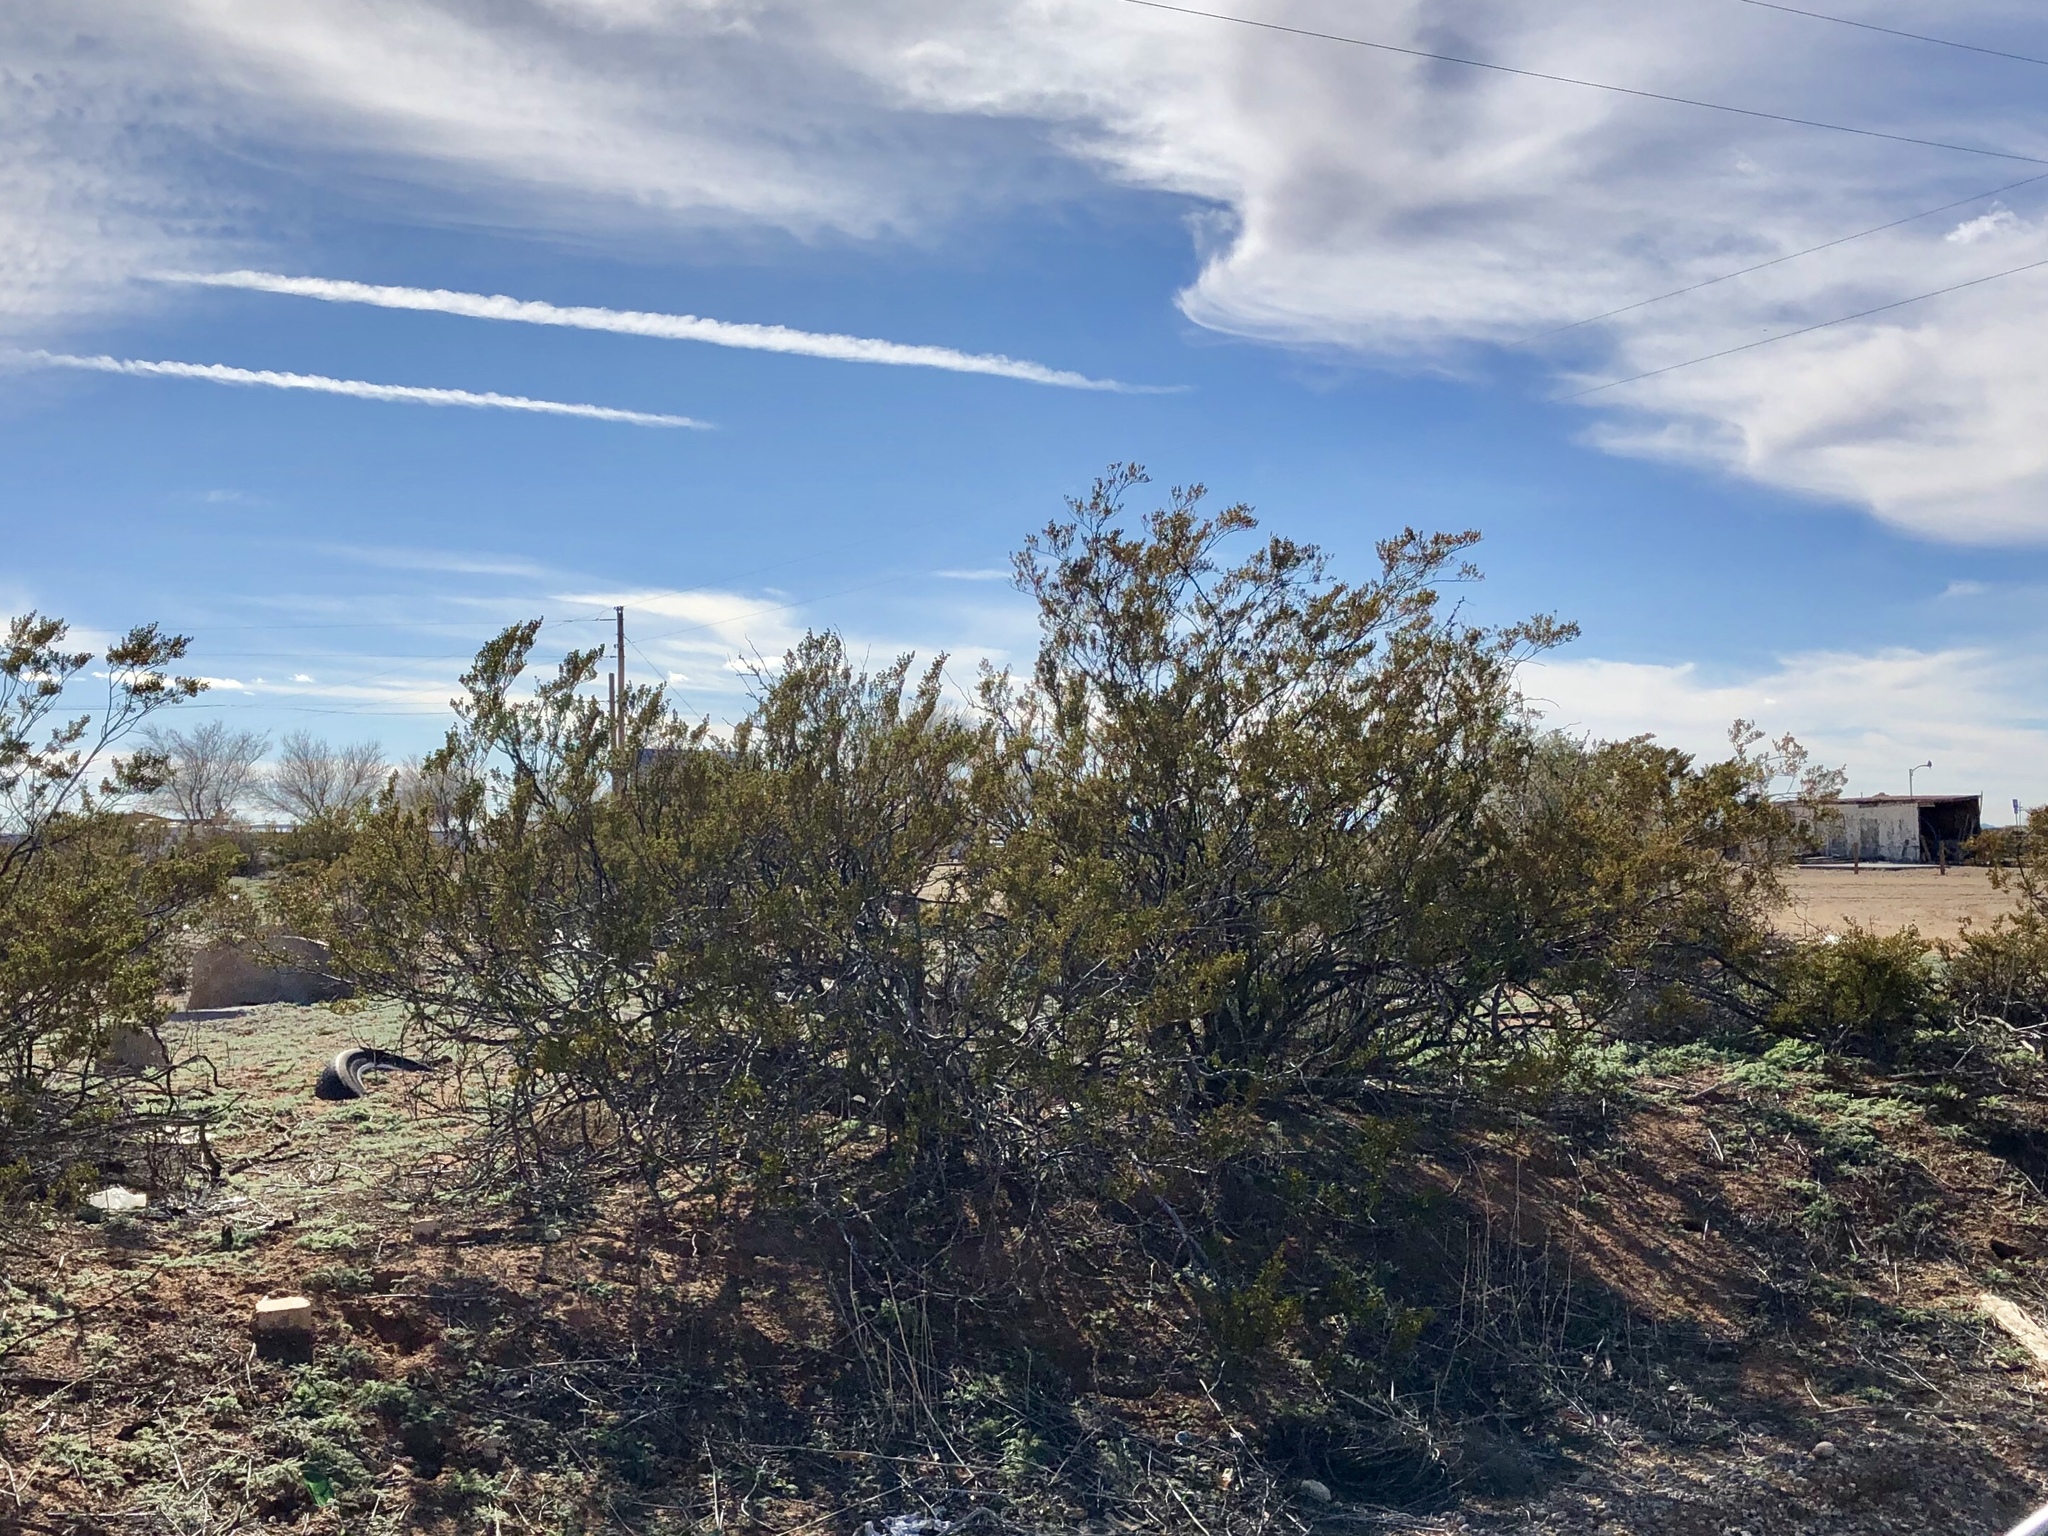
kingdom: Plantae
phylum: Tracheophyta
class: Magnoliopsida
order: Zygophyllales
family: Zygophyllaceae
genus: Larrea
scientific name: Larrea tridentata
